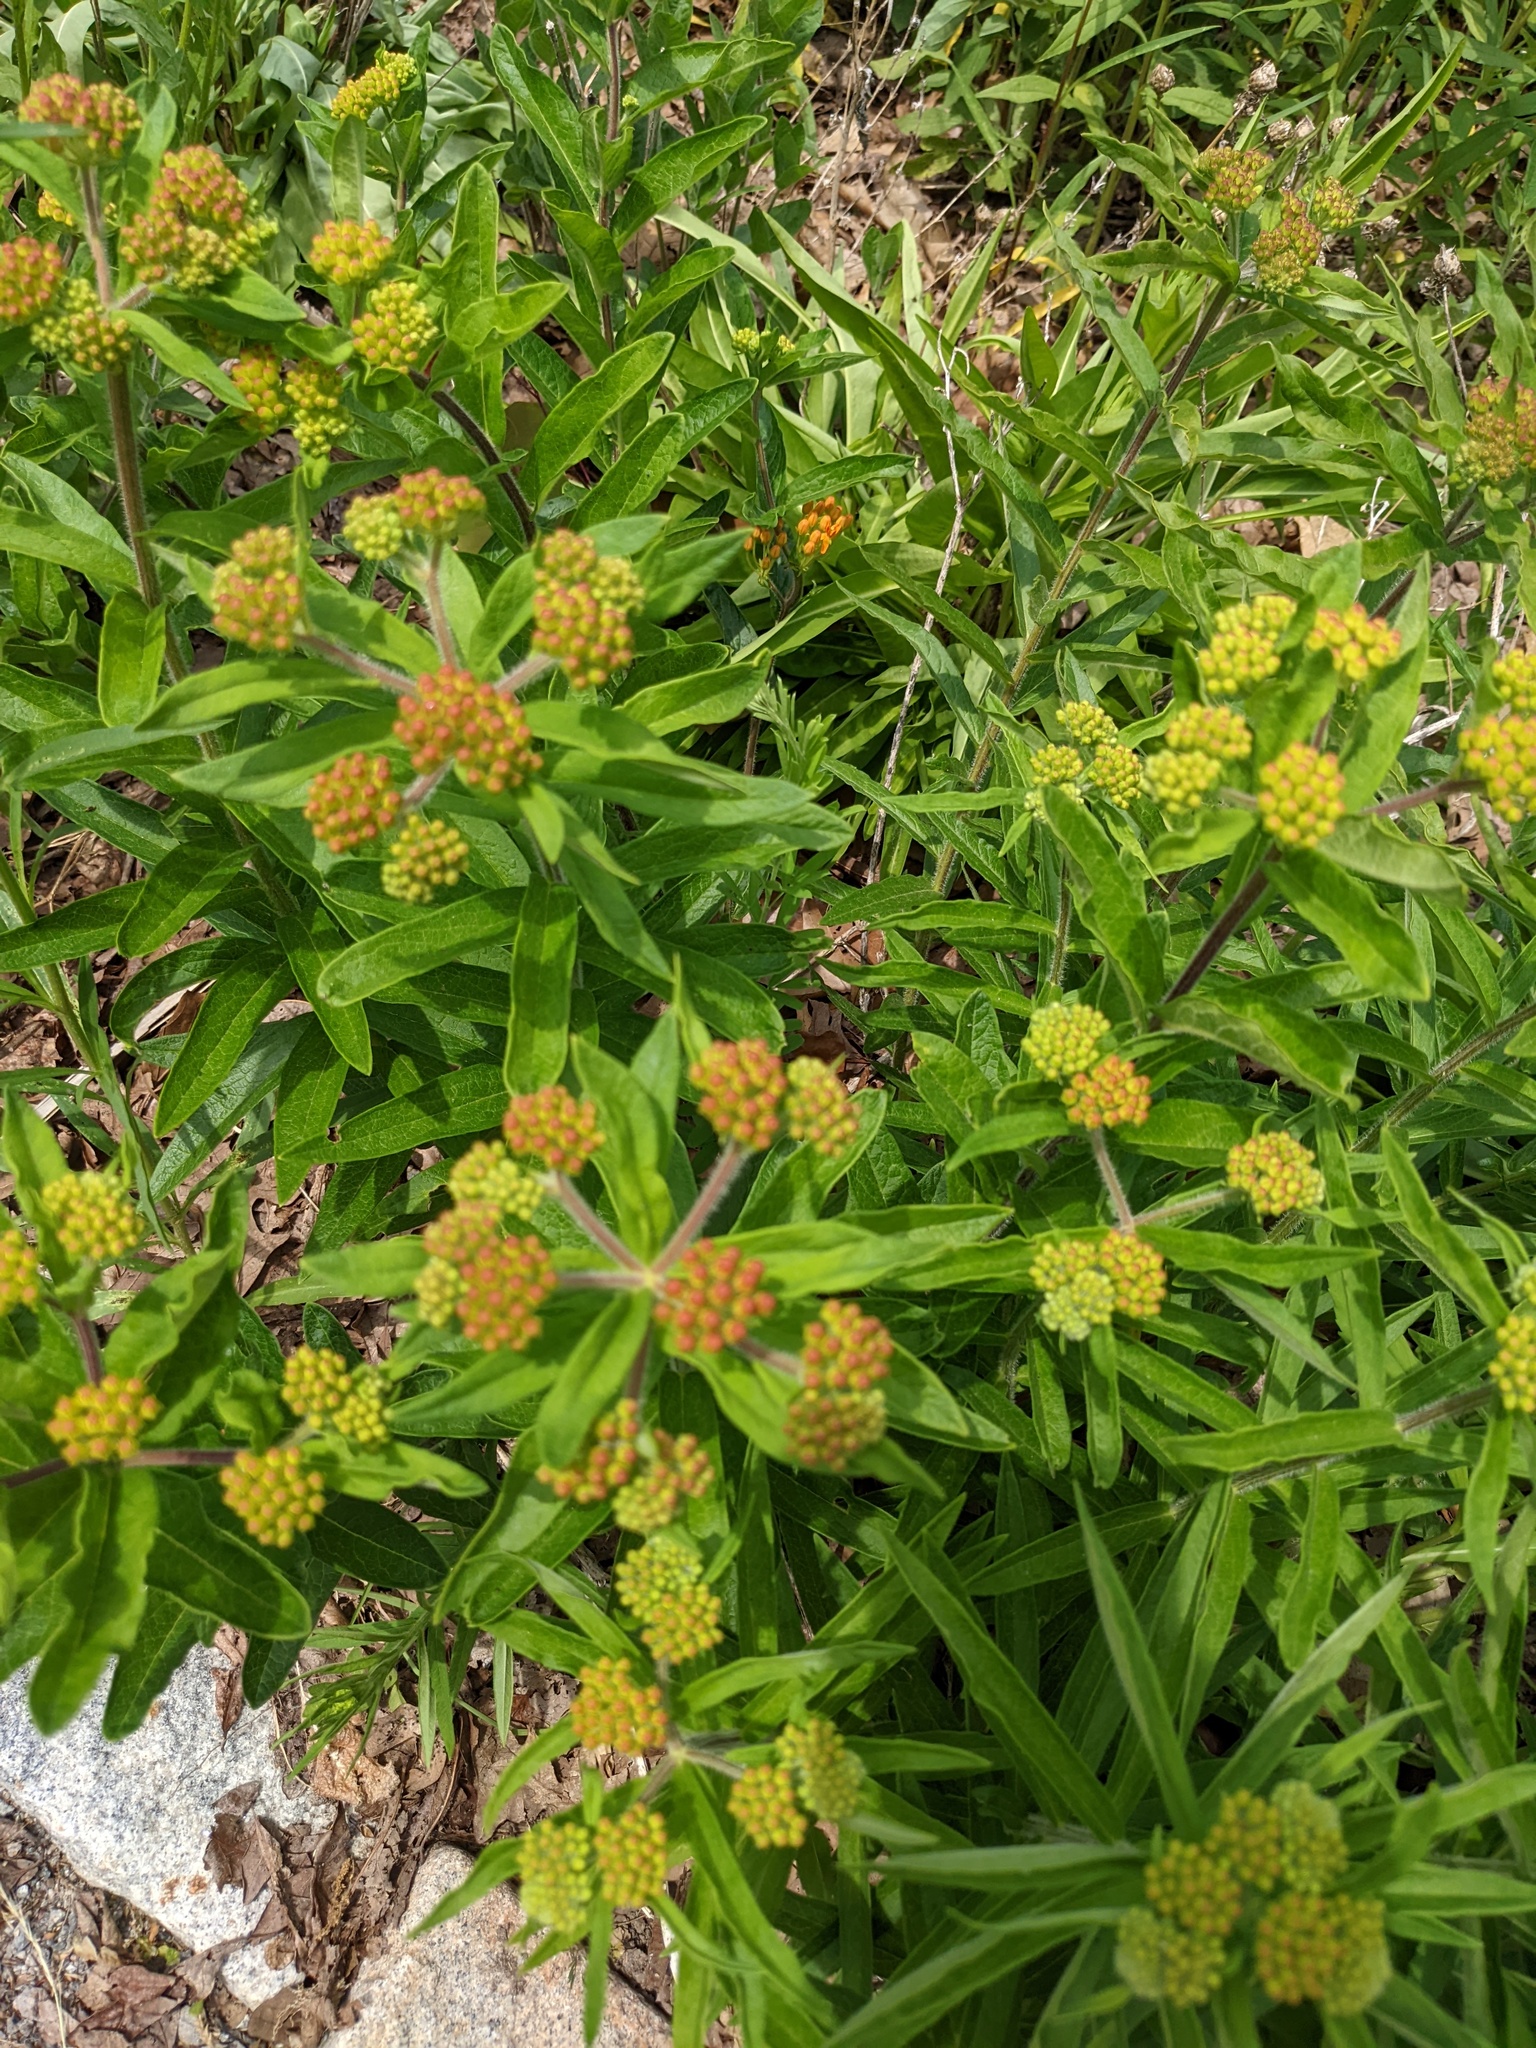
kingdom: Plantae
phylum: Tracheophyta
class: Magnoliopsida
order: Gentianales
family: Apocynaceae
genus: Asclepias
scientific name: Asclepias tuberosa
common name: Butterfly milkweed
